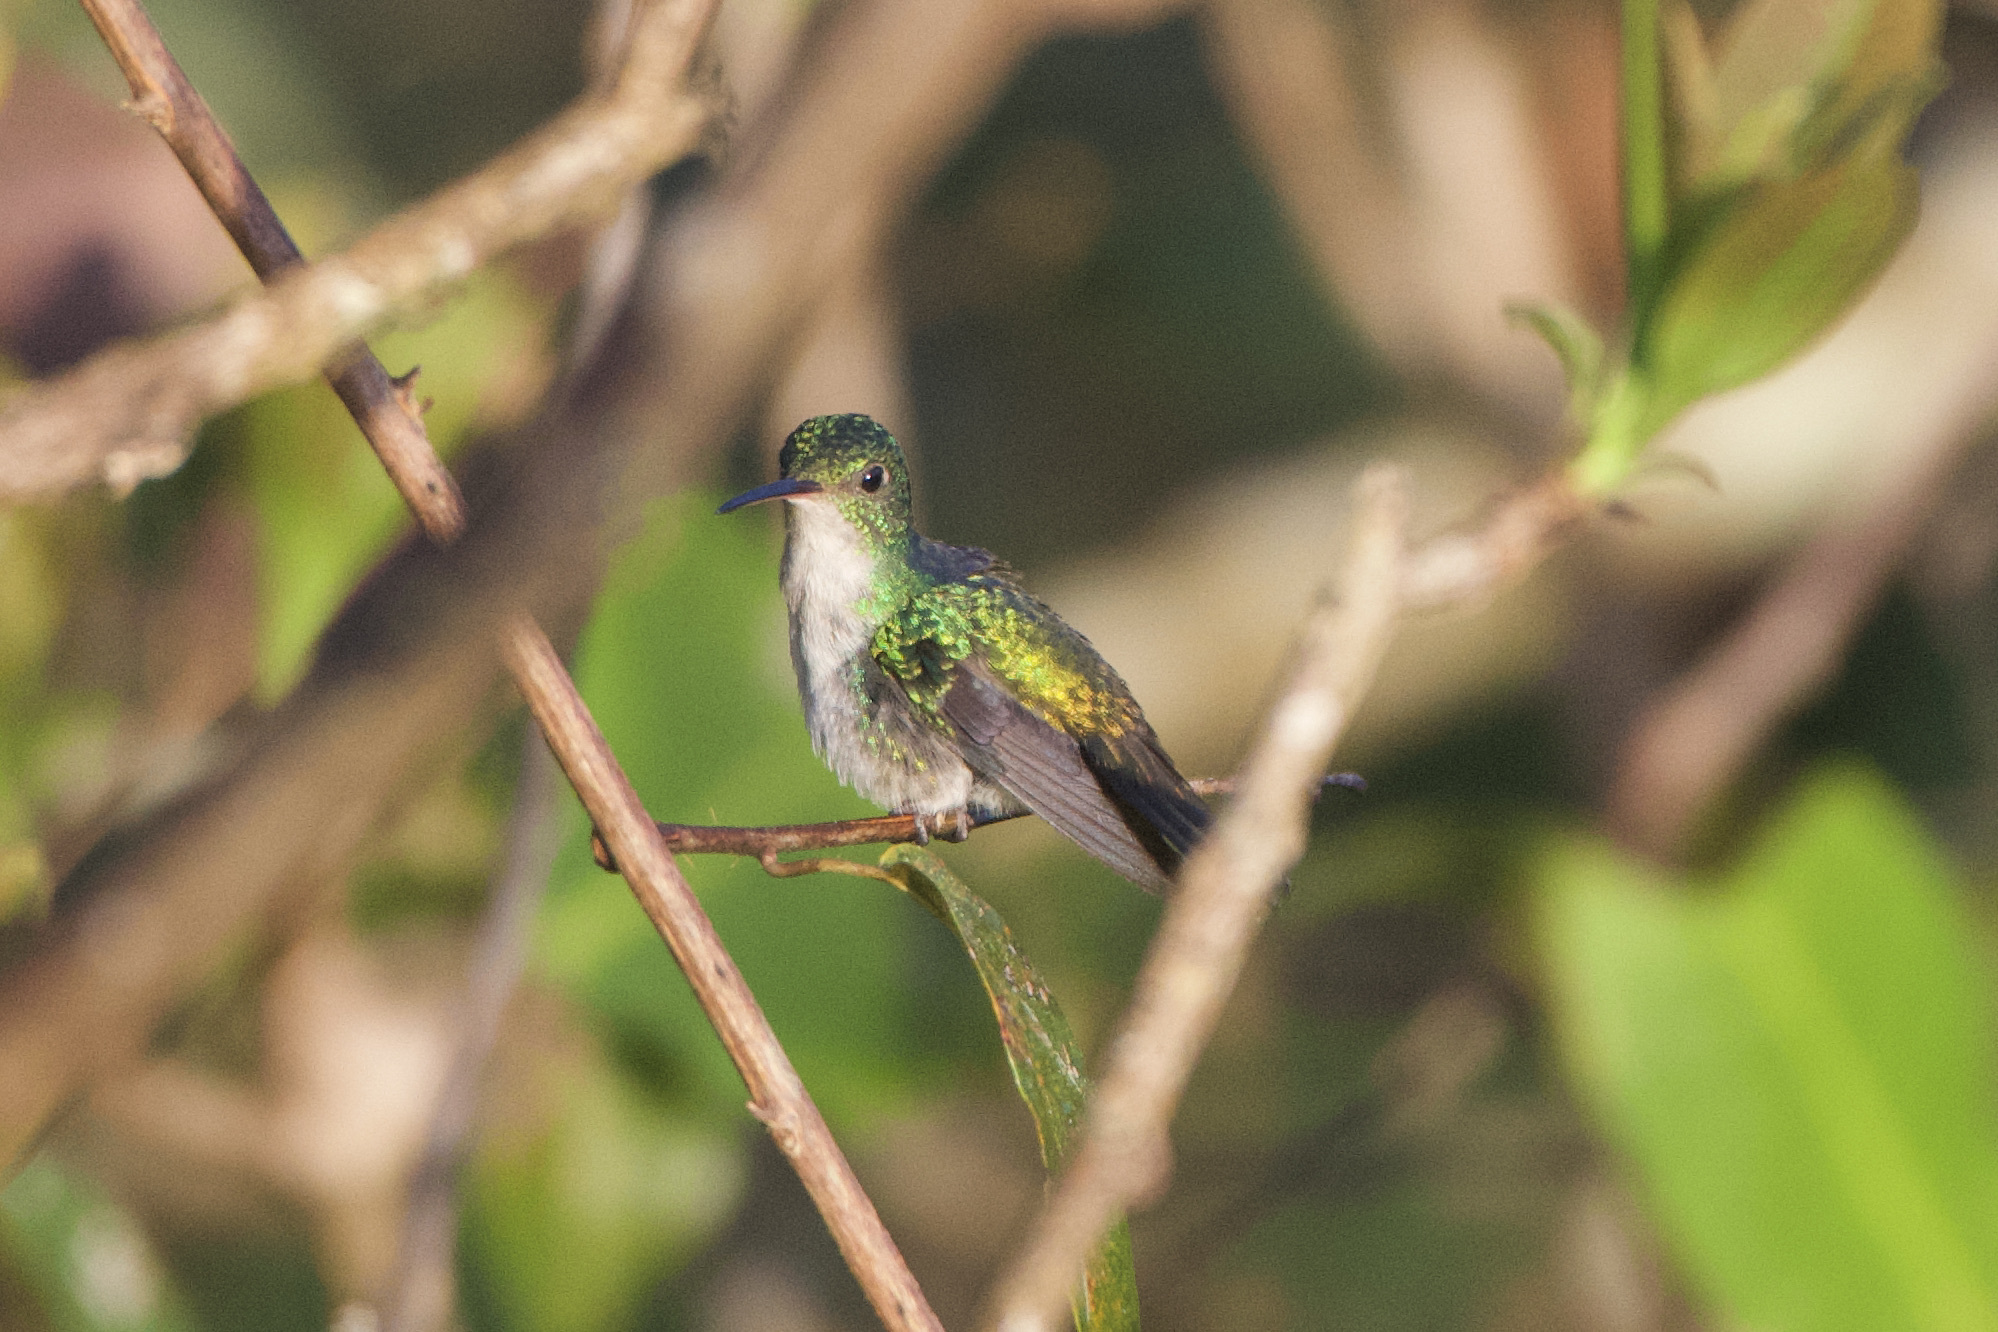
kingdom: Animalia
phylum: Chordata
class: Aves
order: Apodiformes
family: Trochilidae
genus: Chlorestes
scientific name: Chlorestes julie
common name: Violet-bellied hummingbird
